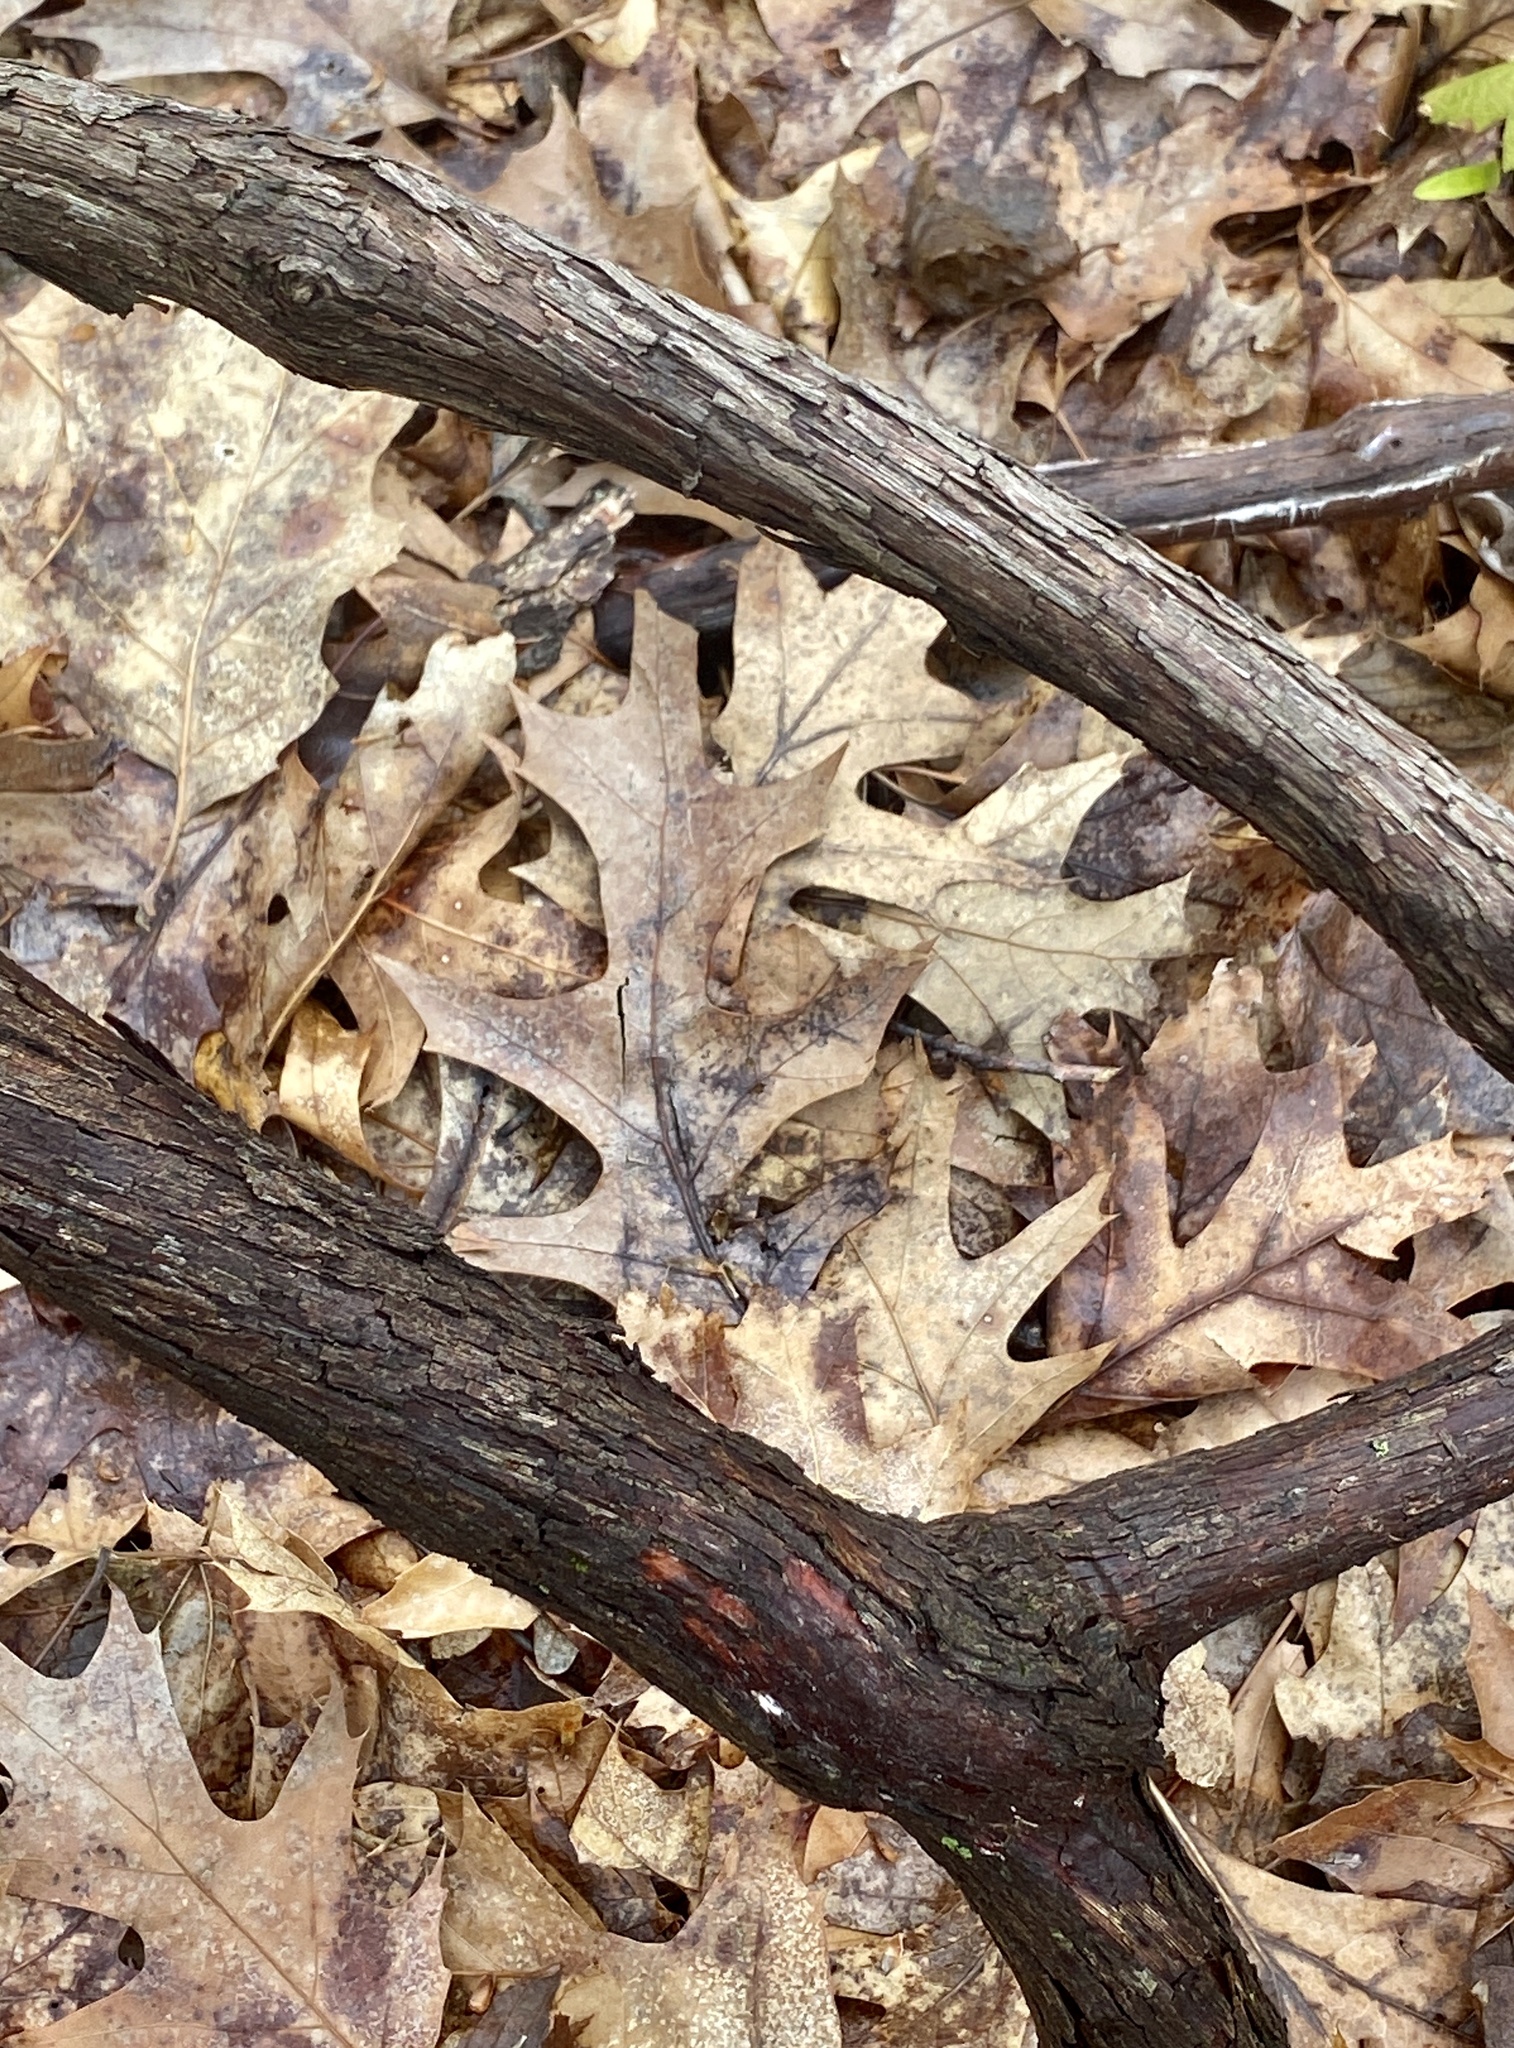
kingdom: Plantae
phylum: Tracheophyta
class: Magnoliopsida
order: Vitales
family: Vitaceae
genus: Vitis
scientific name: Vitis
